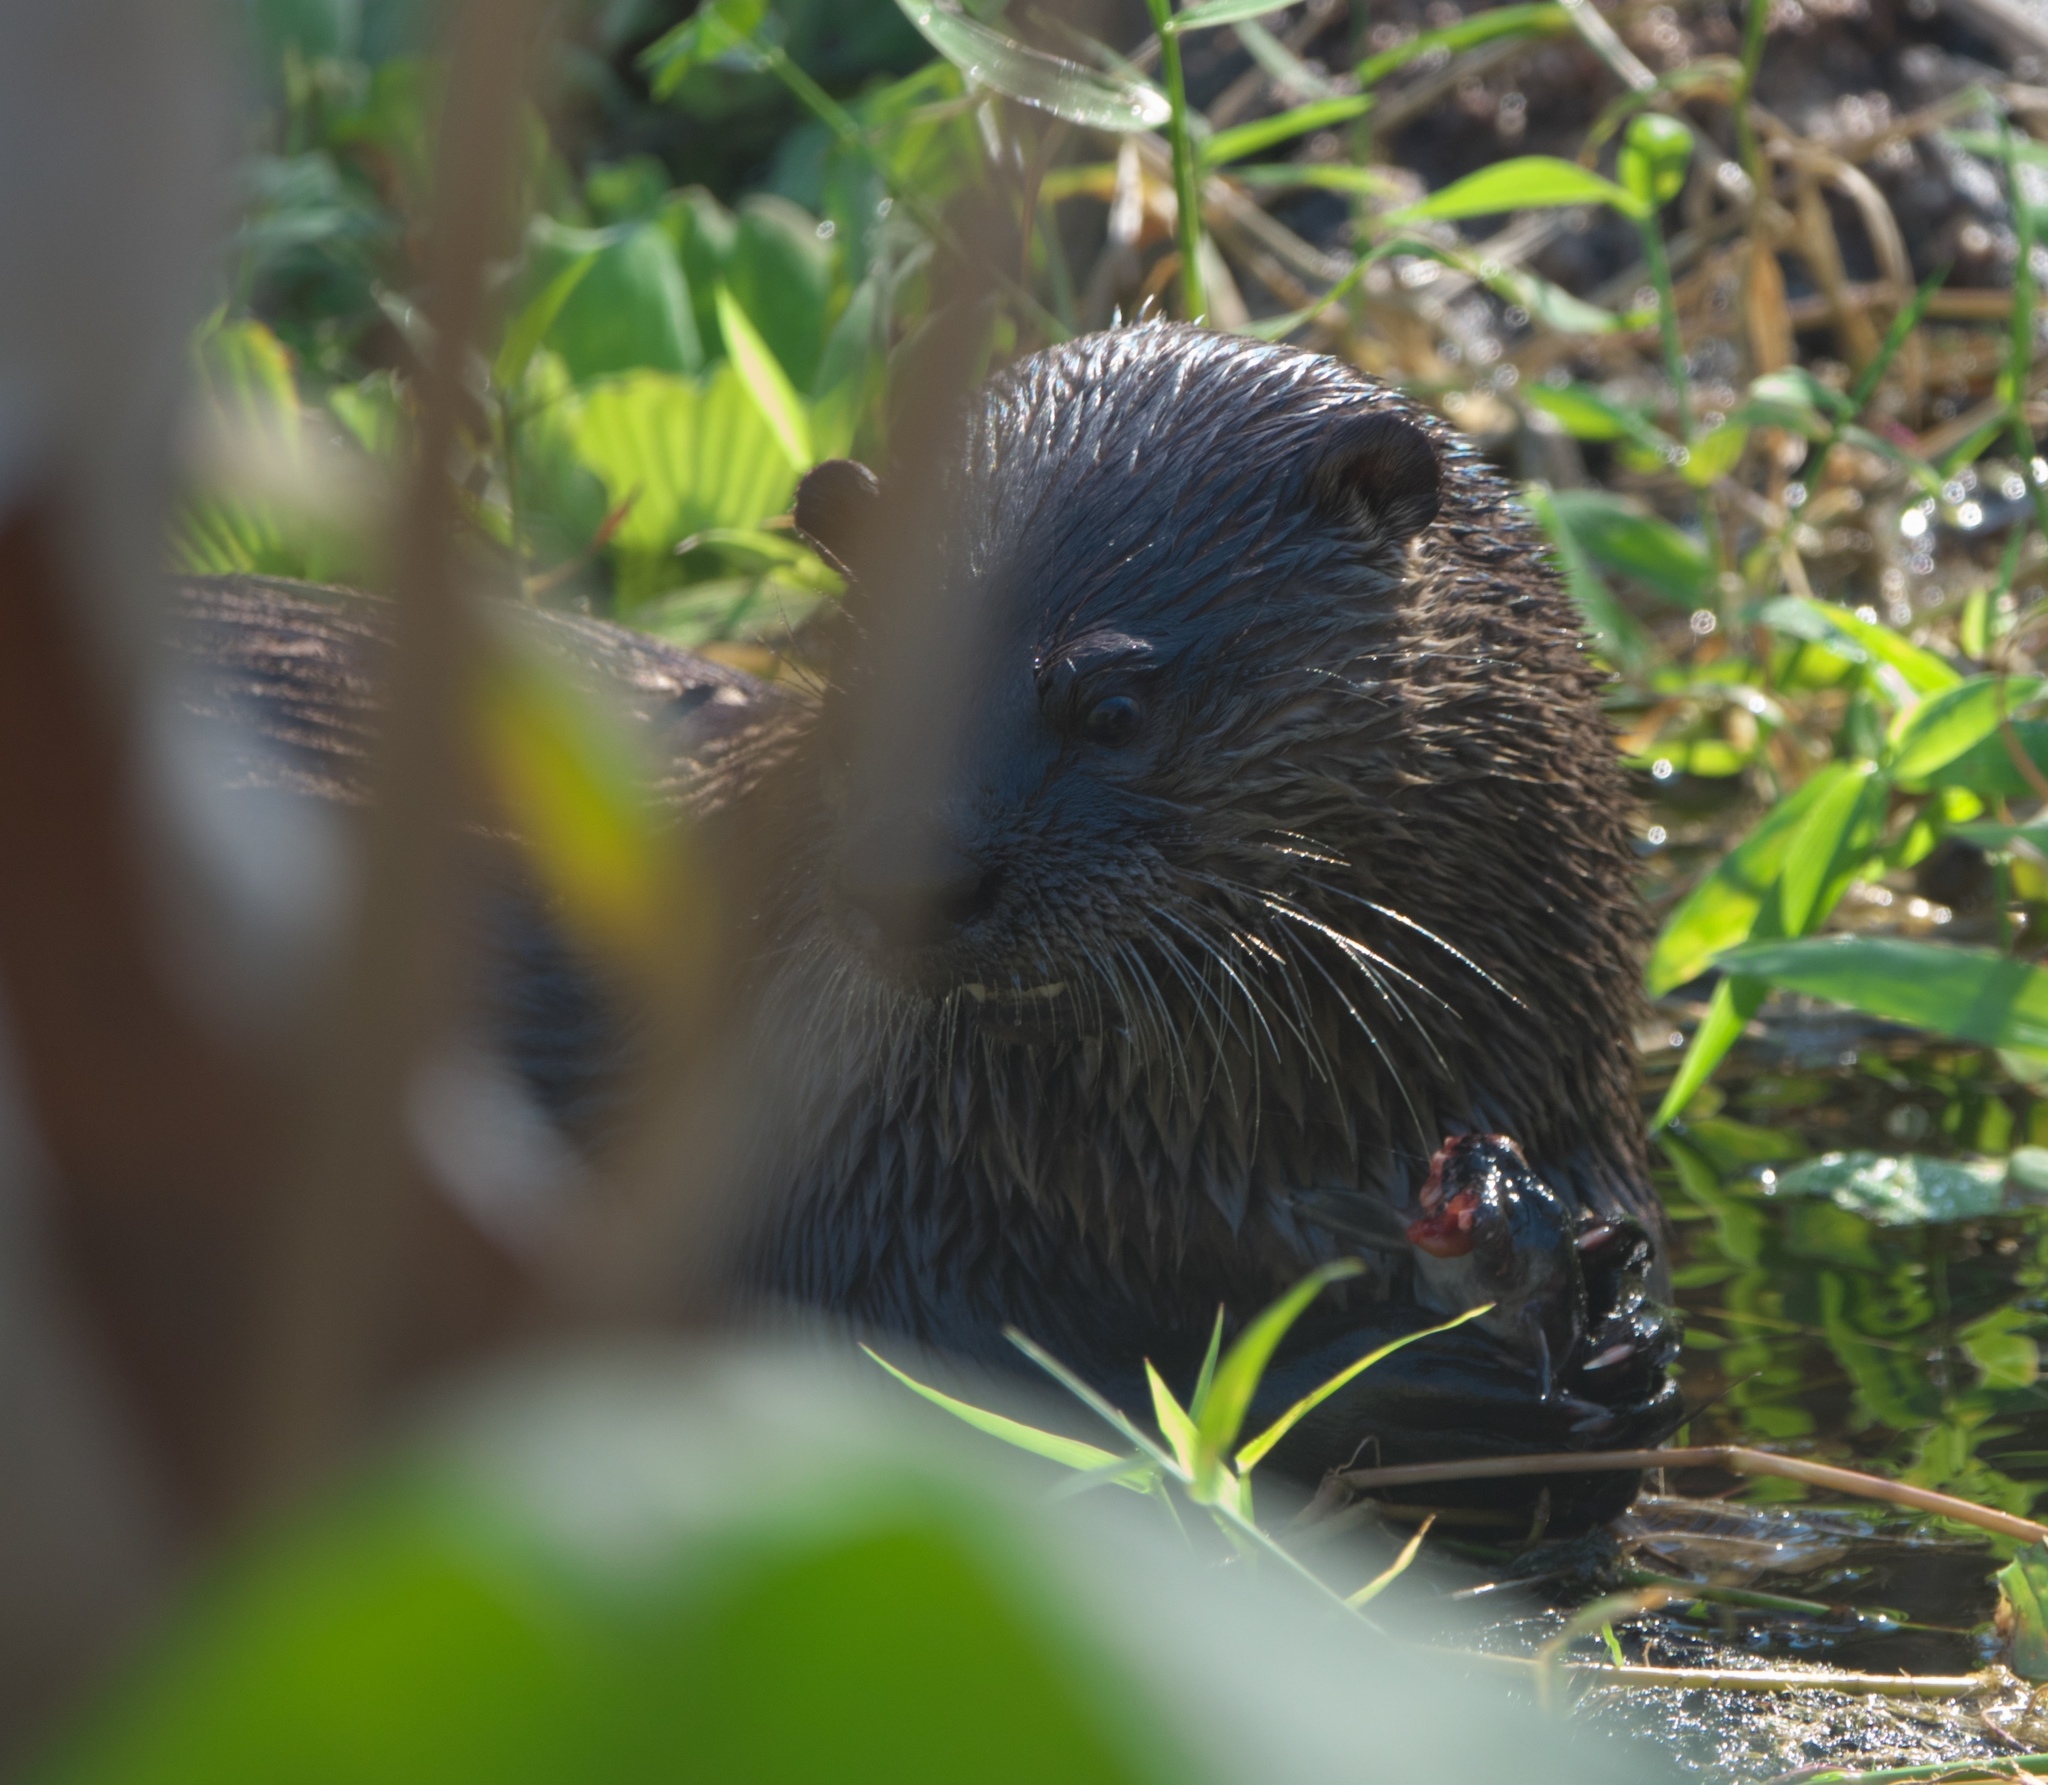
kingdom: Animalia
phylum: Chordata
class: Mammalia
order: Carnivora
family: Mustelidae
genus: Lontra
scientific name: Lontra canadensis
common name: North american river otter
